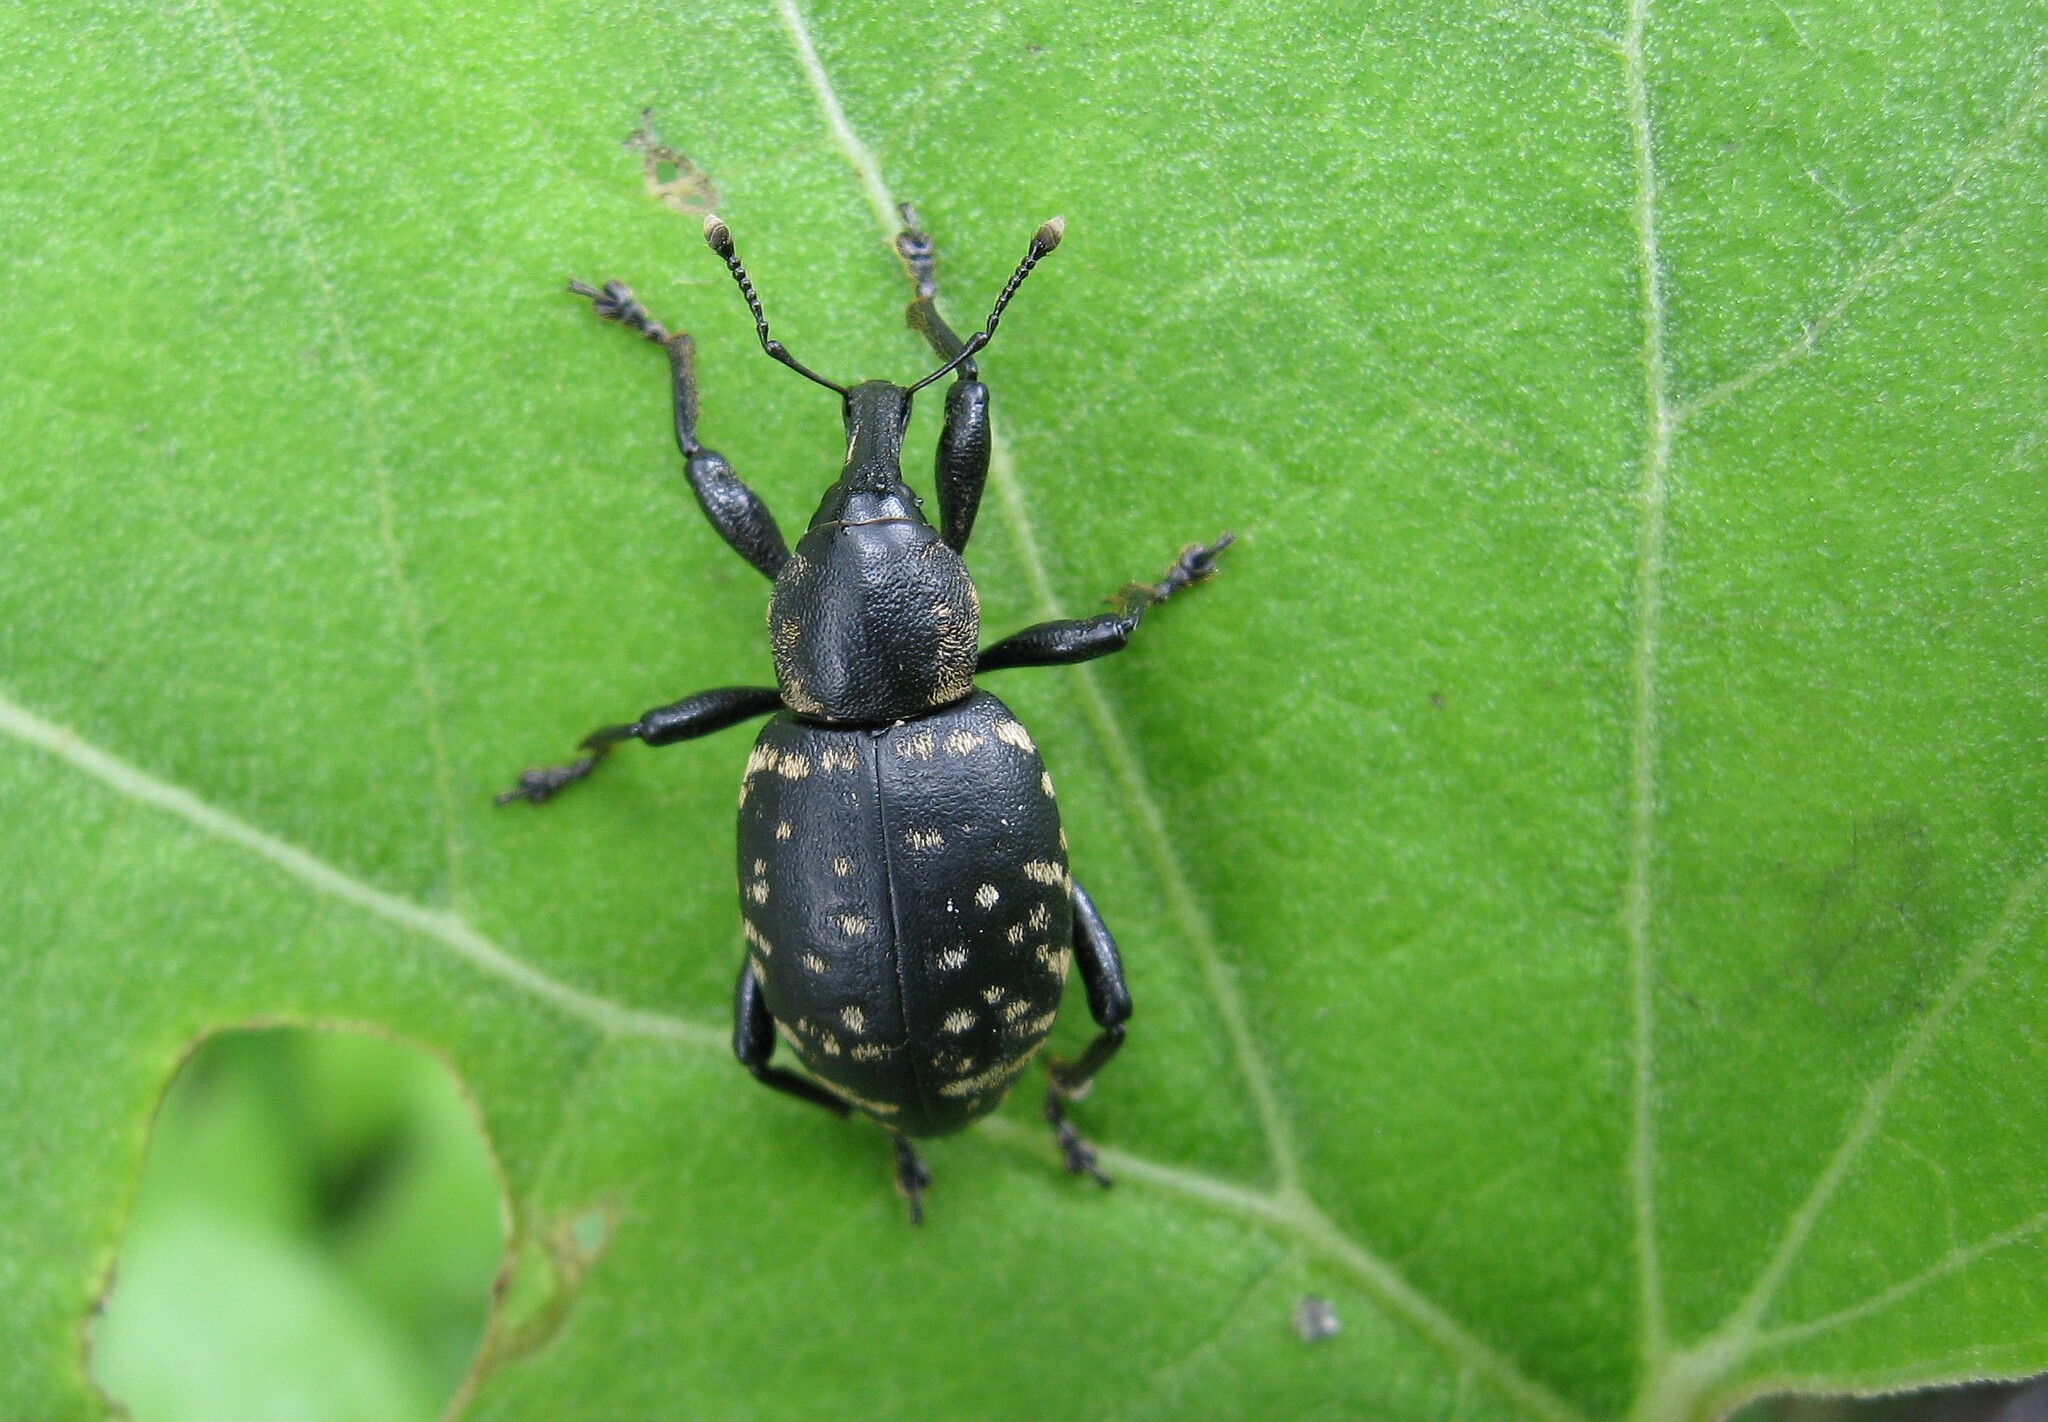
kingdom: Animalia
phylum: Arthropoda
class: Insecta
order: Coleoptera
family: Curculionidae
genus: Liparus
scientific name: Liparus glabrirostris
